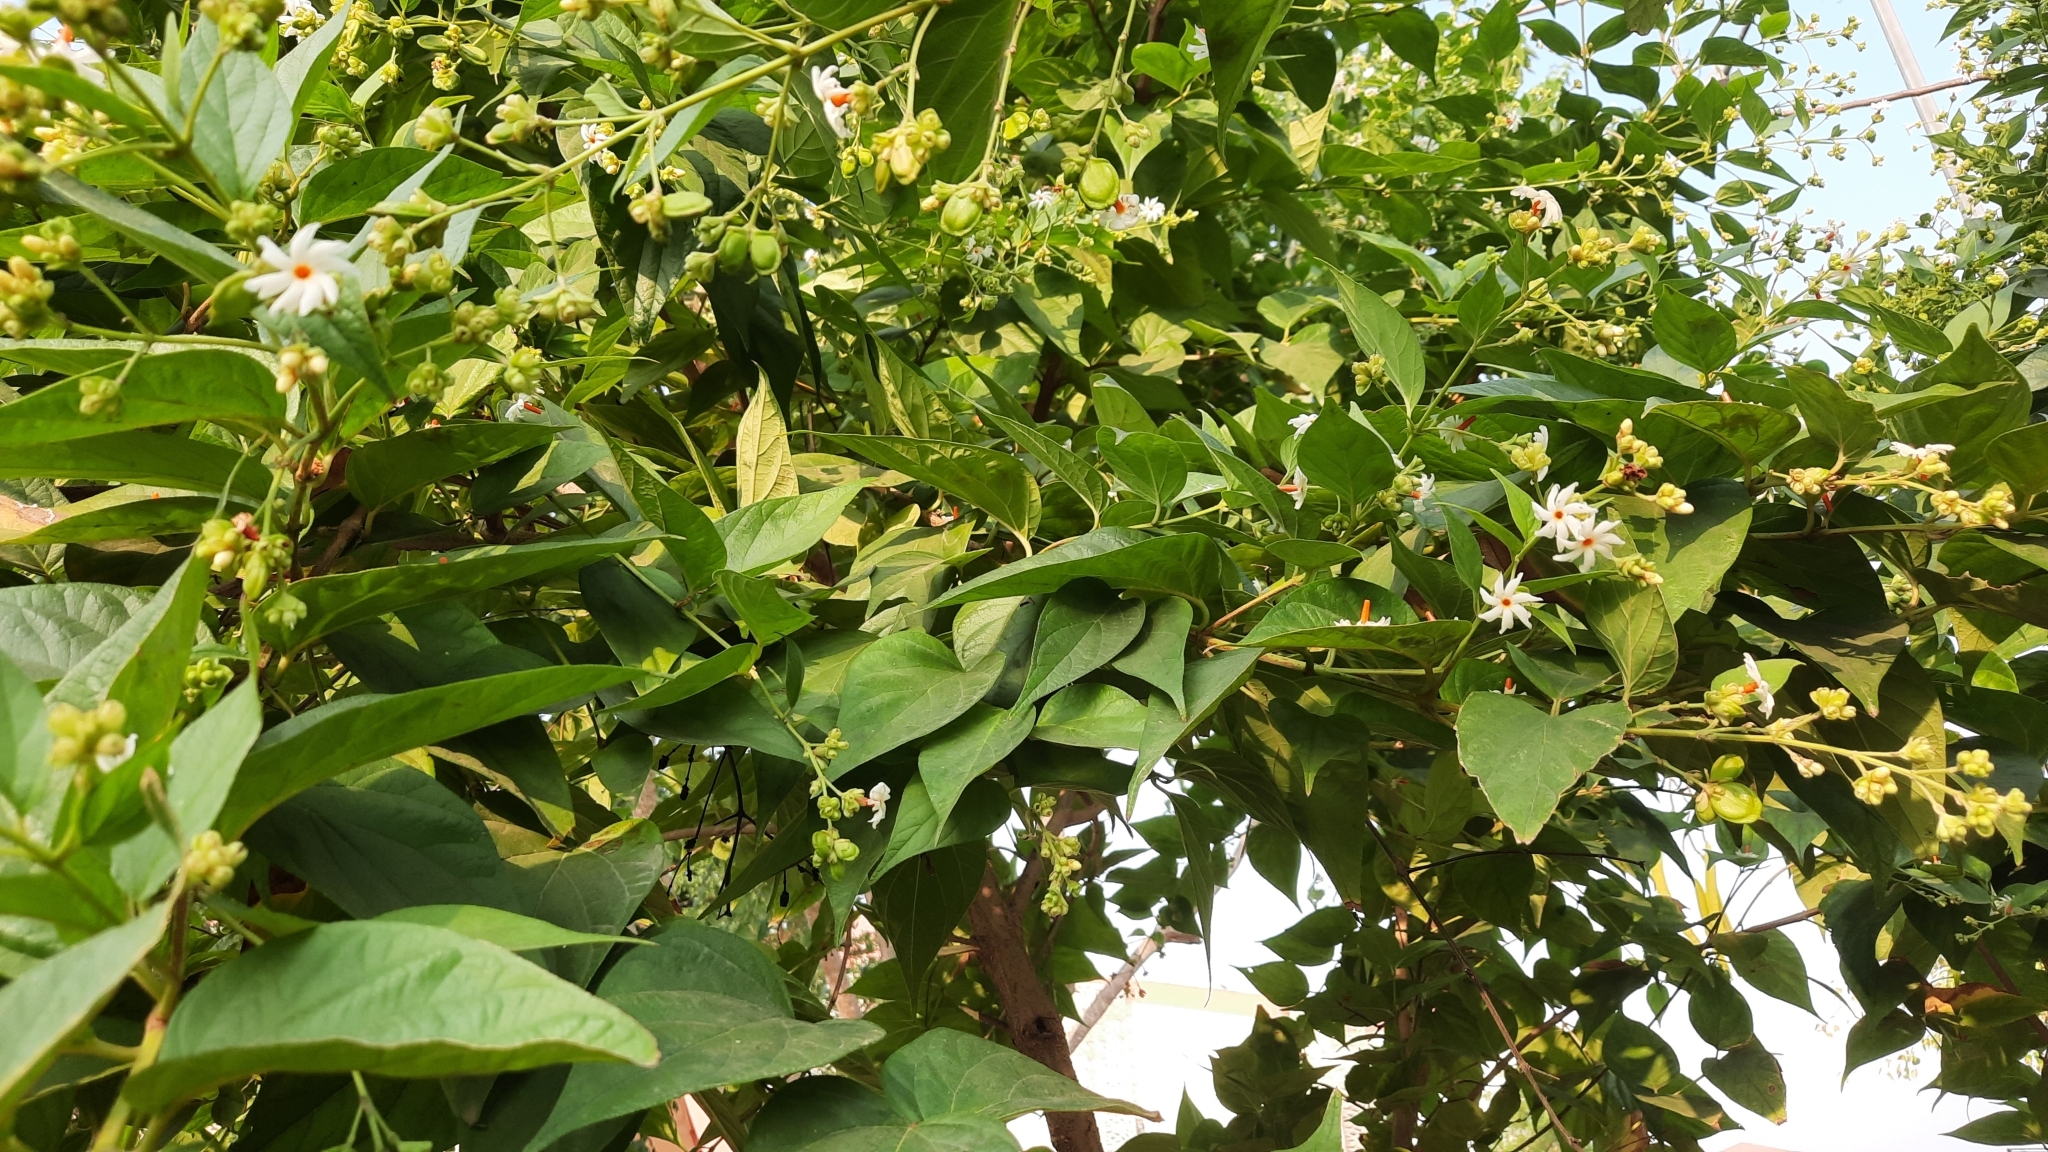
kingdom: Plantae
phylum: Tracheophyta
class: Magnoliopsida
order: Lamiales
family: Oleaceae
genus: Nyctanthes
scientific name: Nyctanthes arbor-tristis
